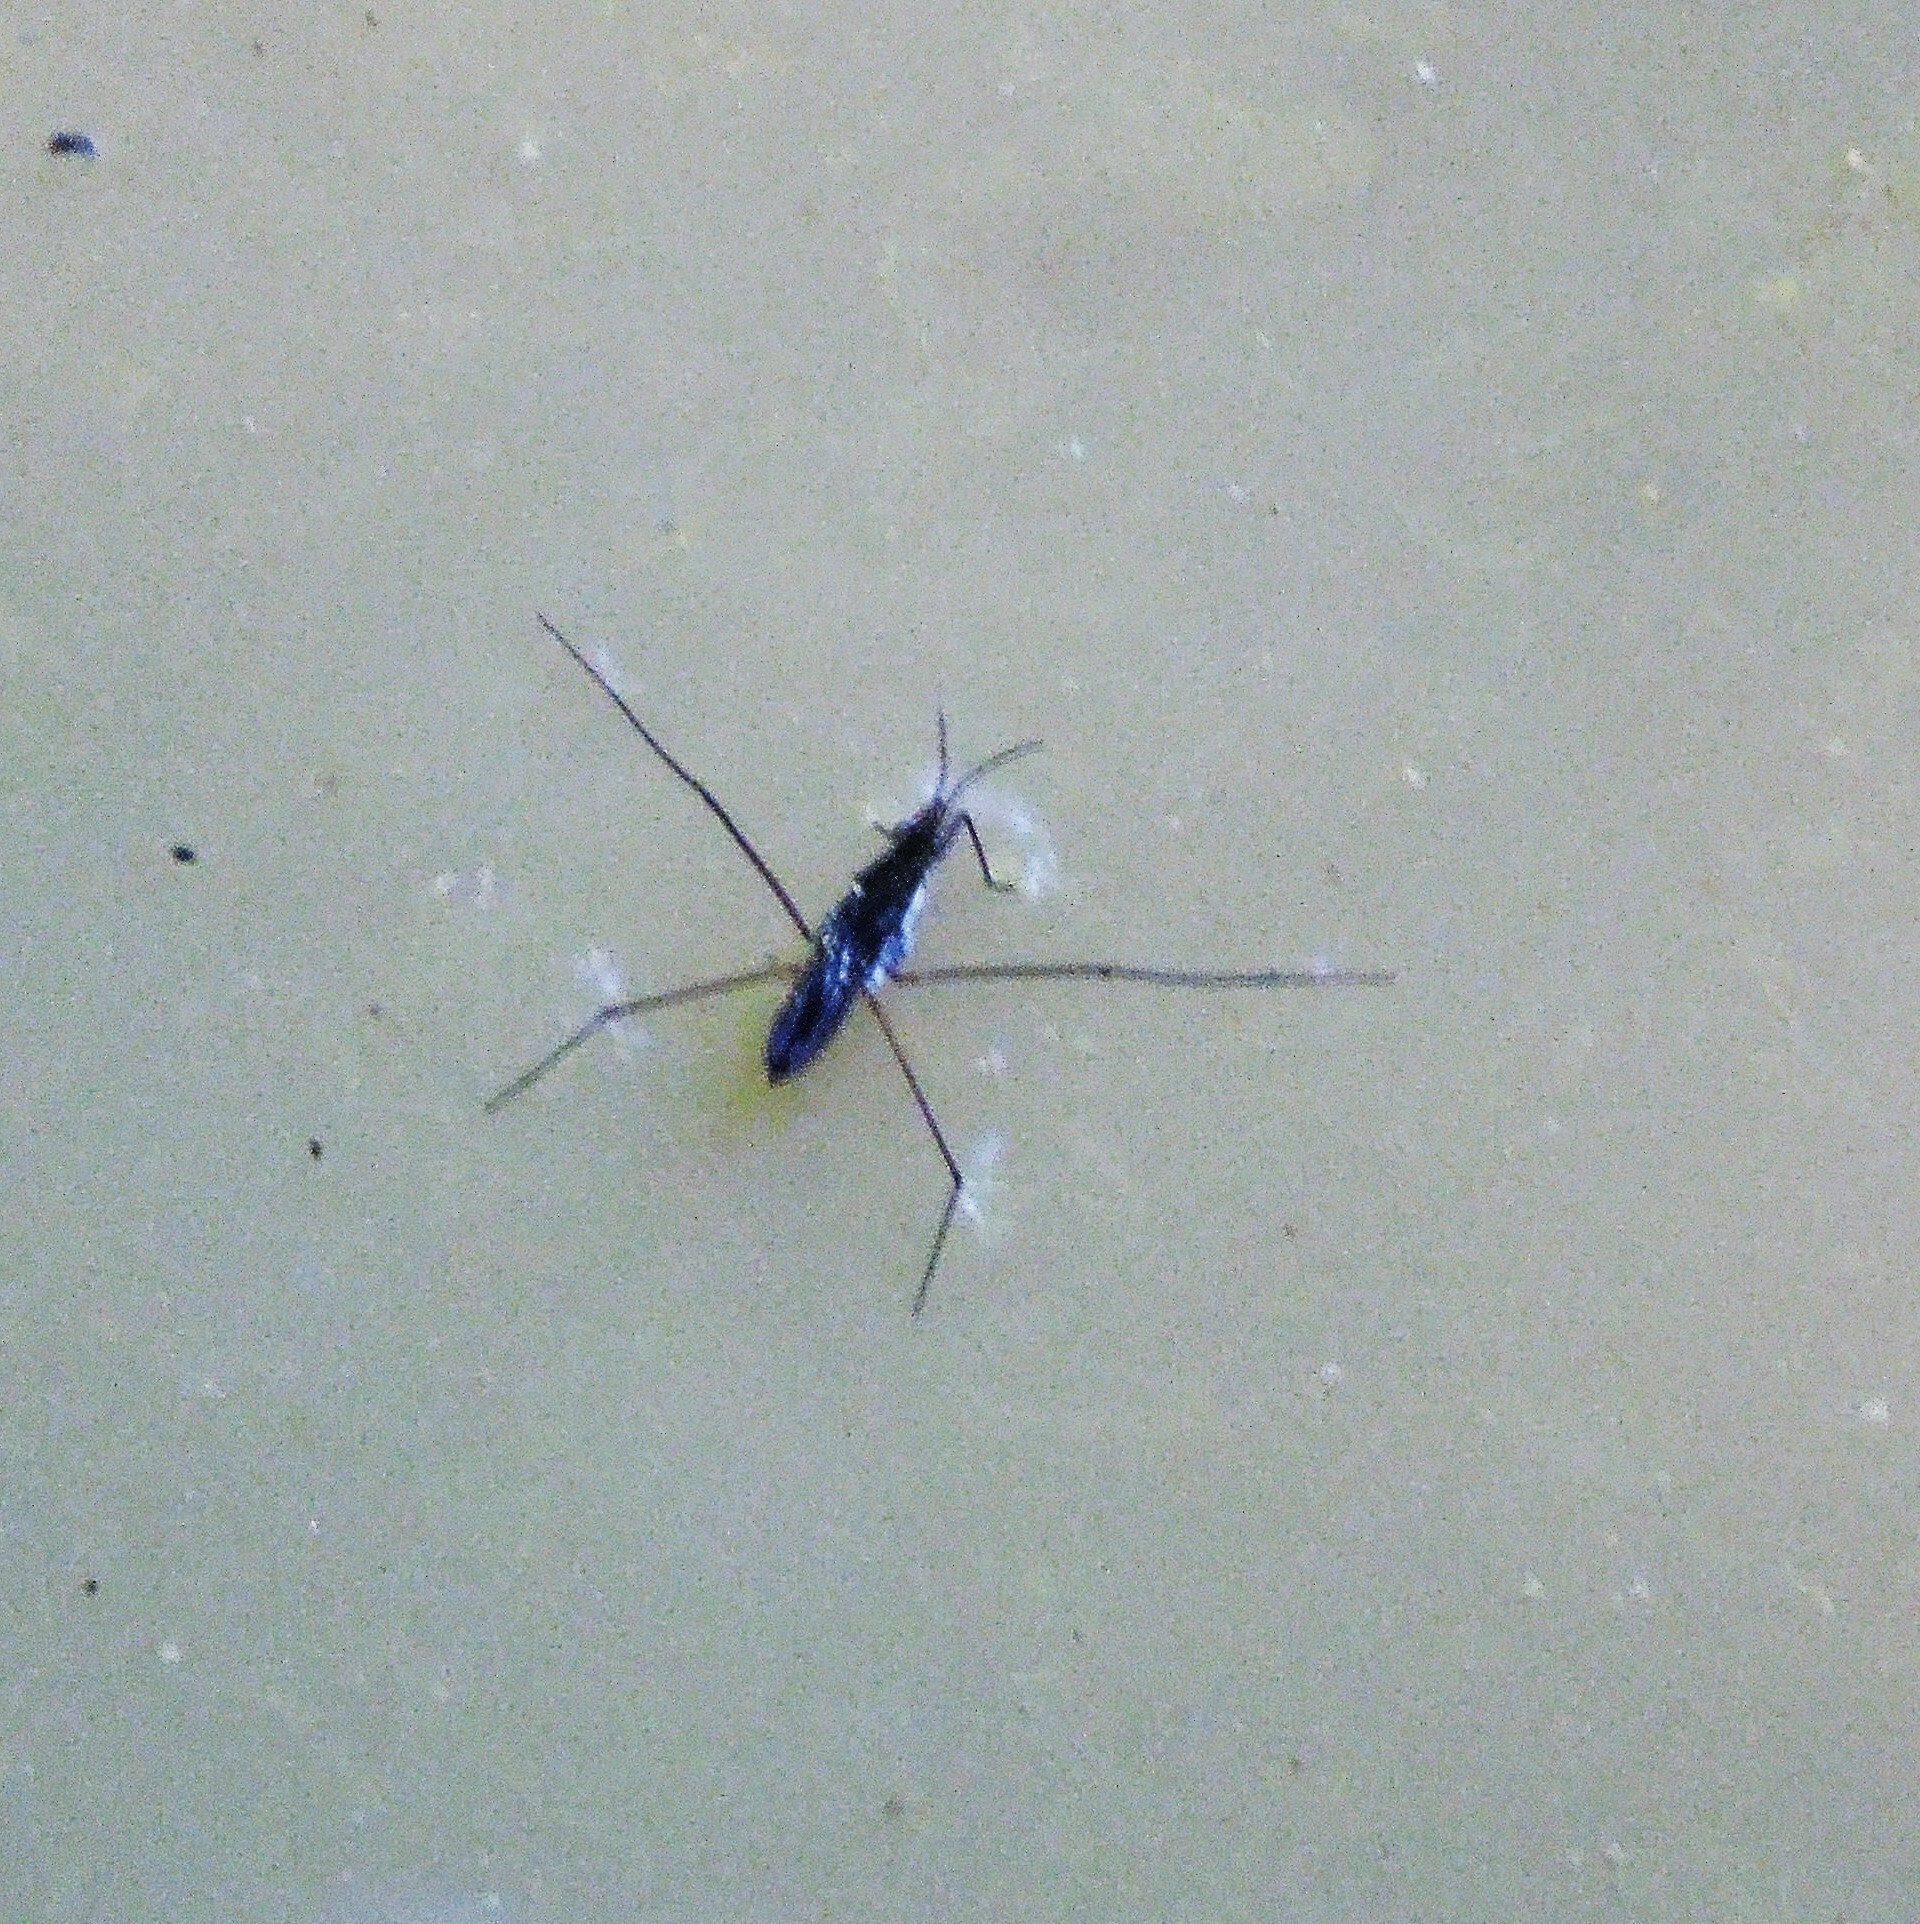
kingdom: Animalia
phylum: Arthropoda
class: Insecta
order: Hemiptera
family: Gerridae
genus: Gerris
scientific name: Gerris
